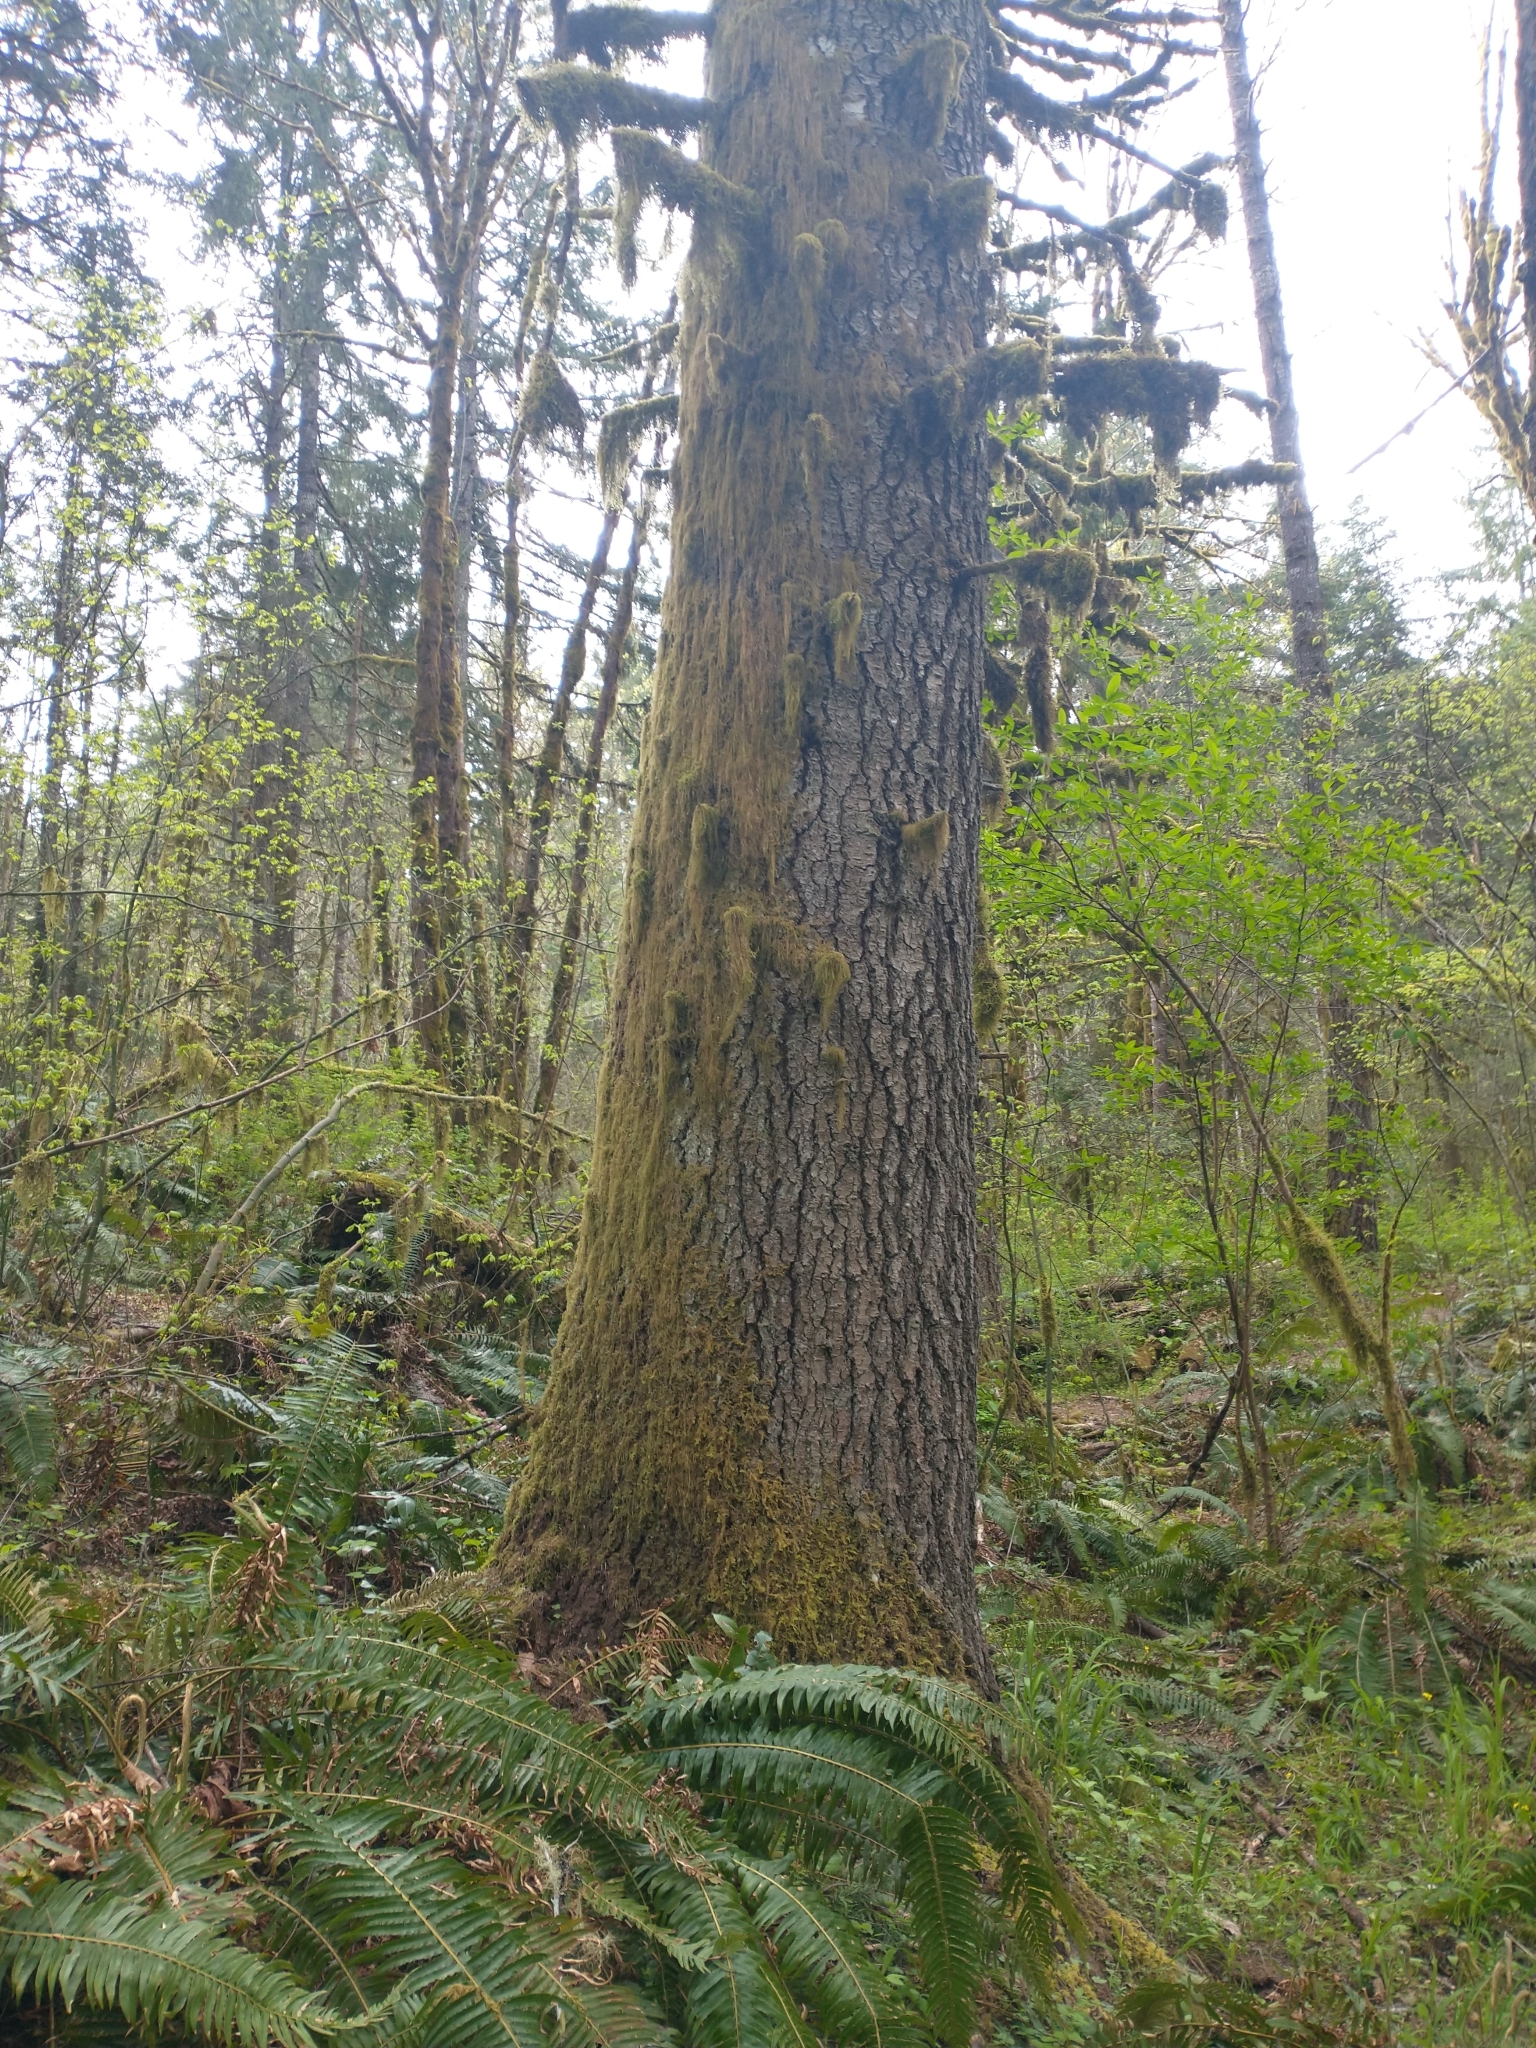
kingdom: Plantae
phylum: Tracheophyta
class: Pinopsida
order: Pinales
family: Pinaceae
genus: Abies
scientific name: Abies grandis
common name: Giant fir
